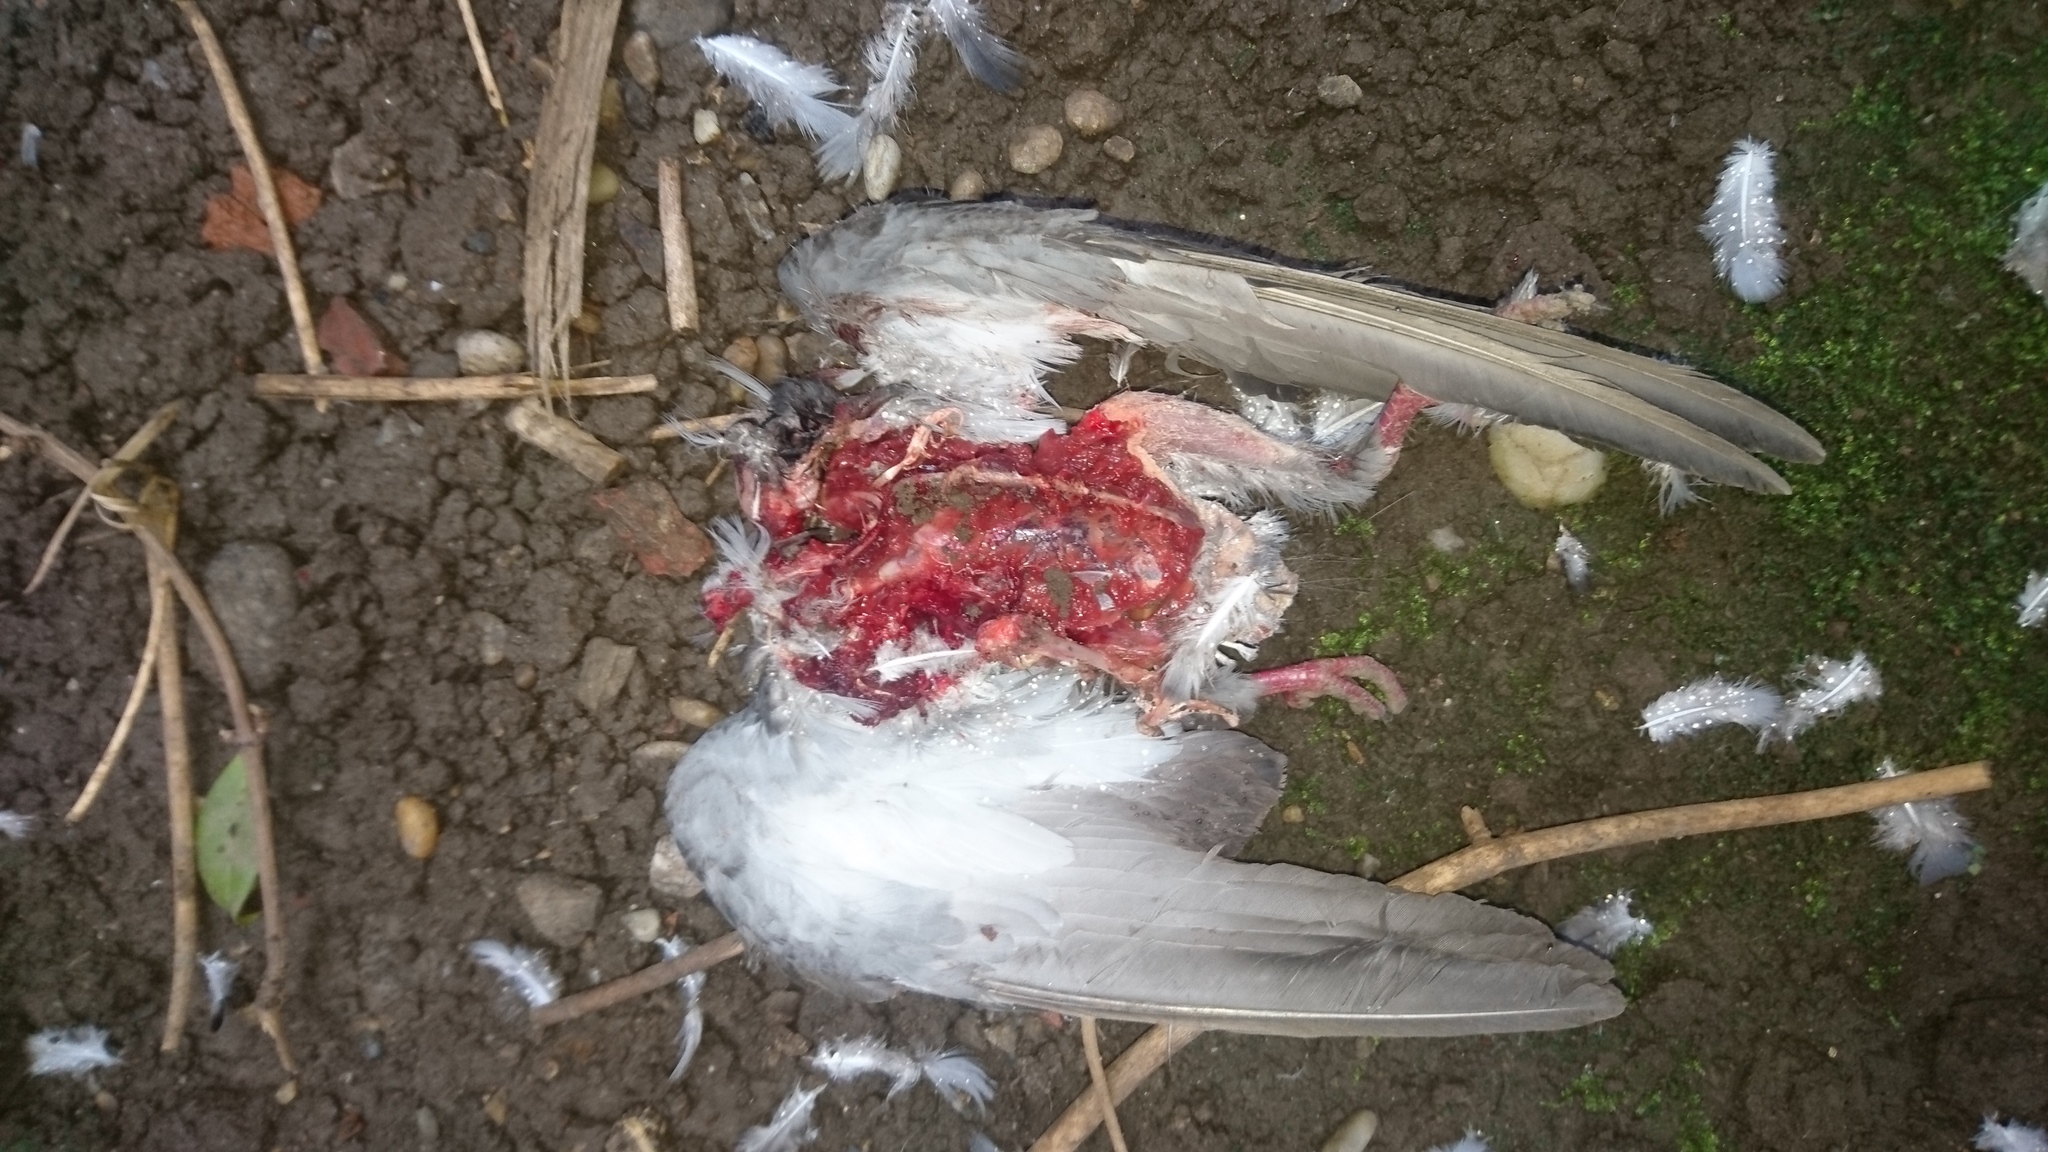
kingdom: Animalia
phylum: Chordata
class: Aves
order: Columbiformes
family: Columbidae
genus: Columba
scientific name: Columba livia
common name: Rock pigeon
